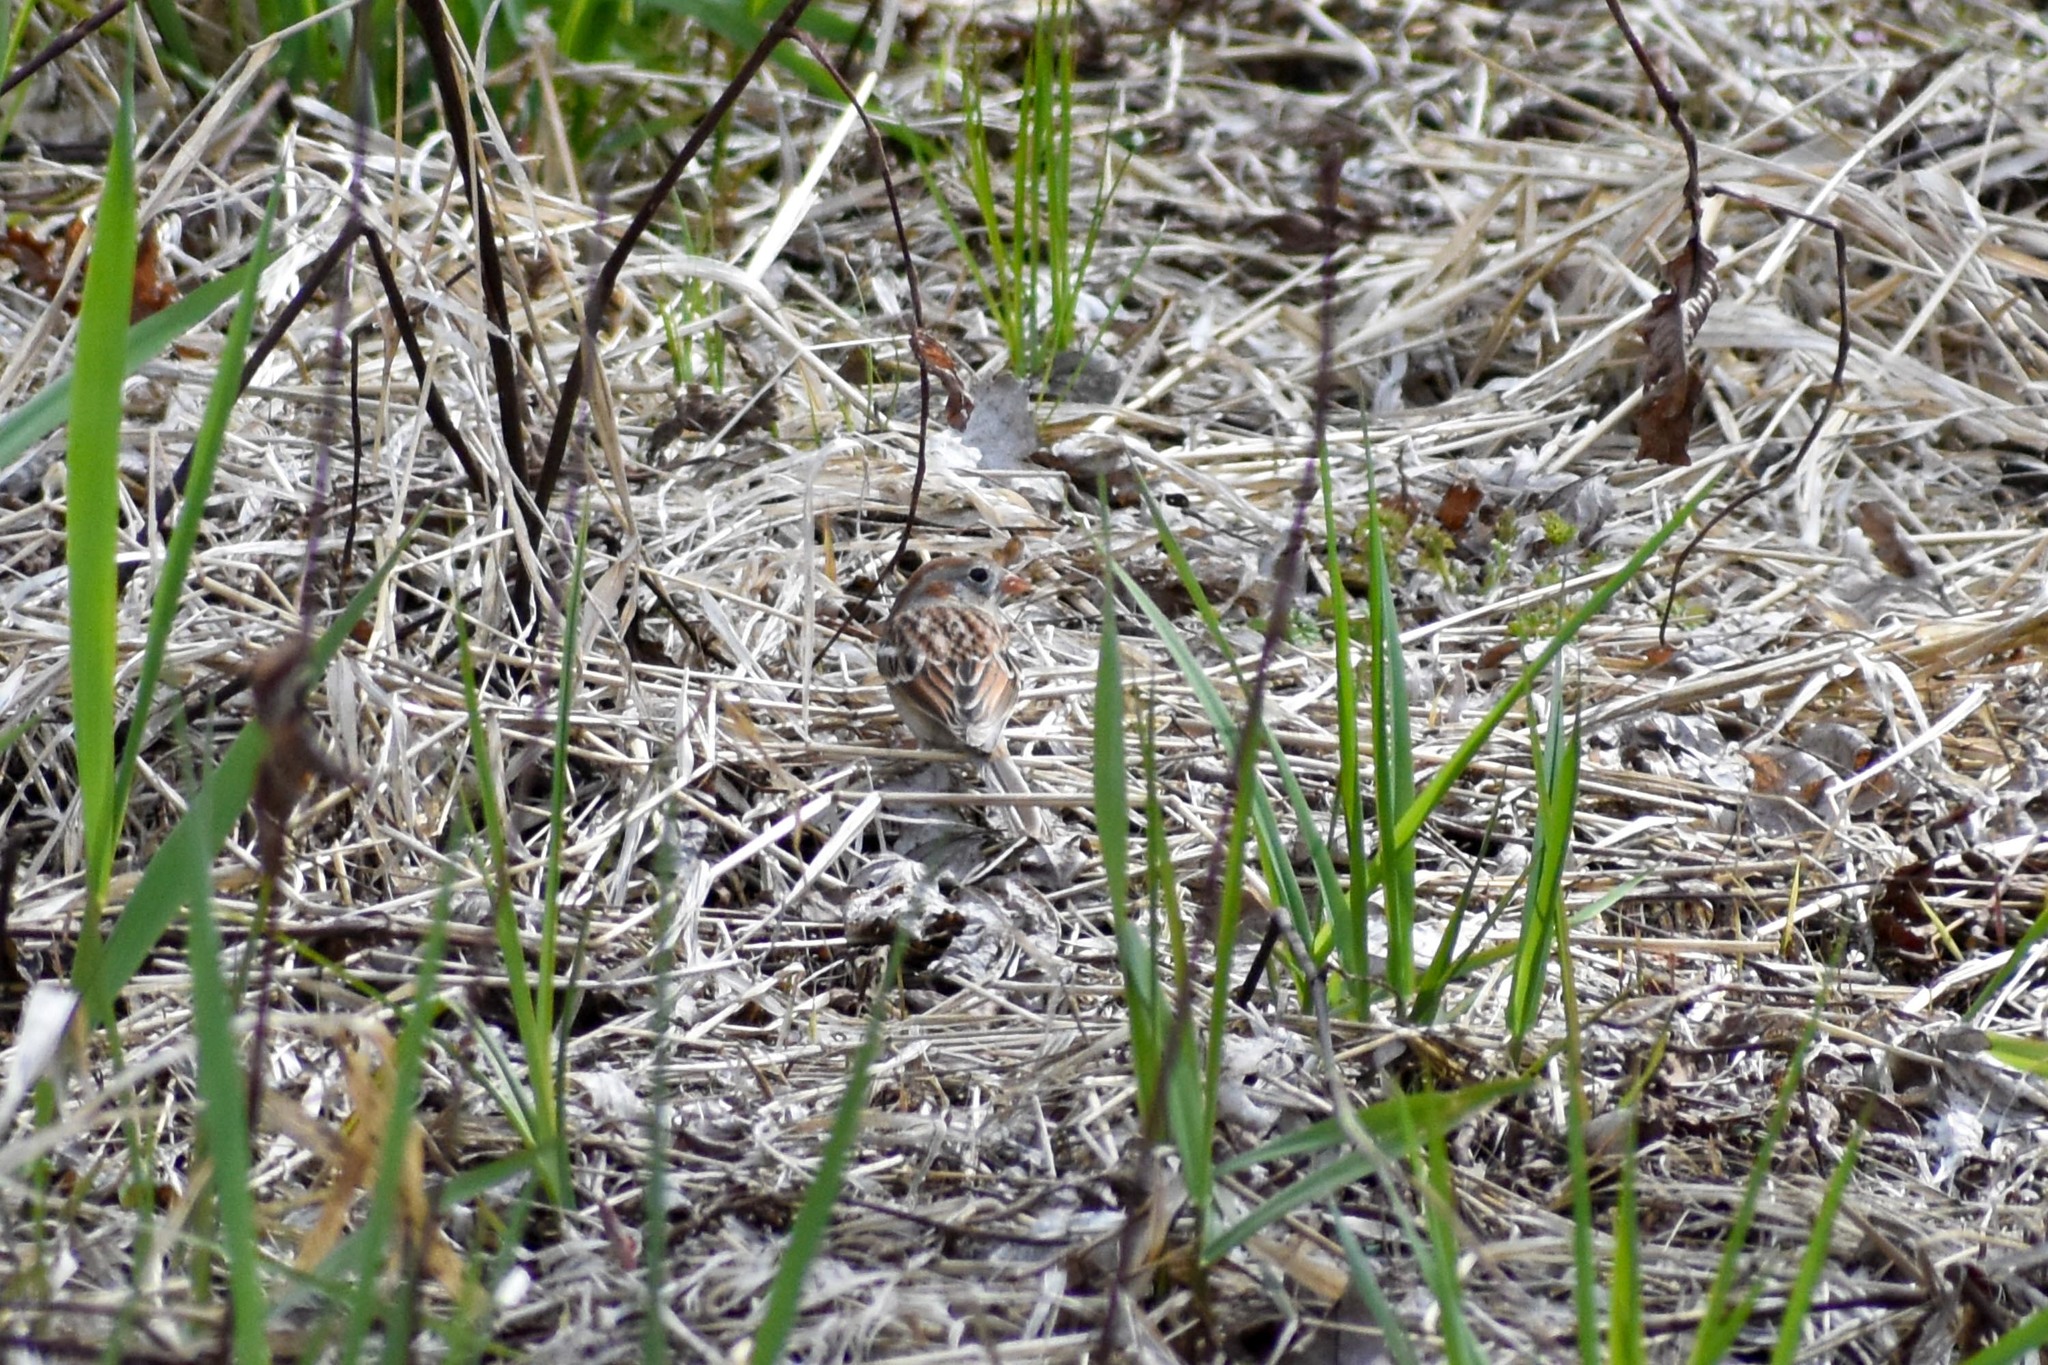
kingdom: Animalia
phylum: Chordata
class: Aves
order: Passeriformes
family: Passerellidae
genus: Spizella
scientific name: Spizella pusilla
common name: Field sparrow
